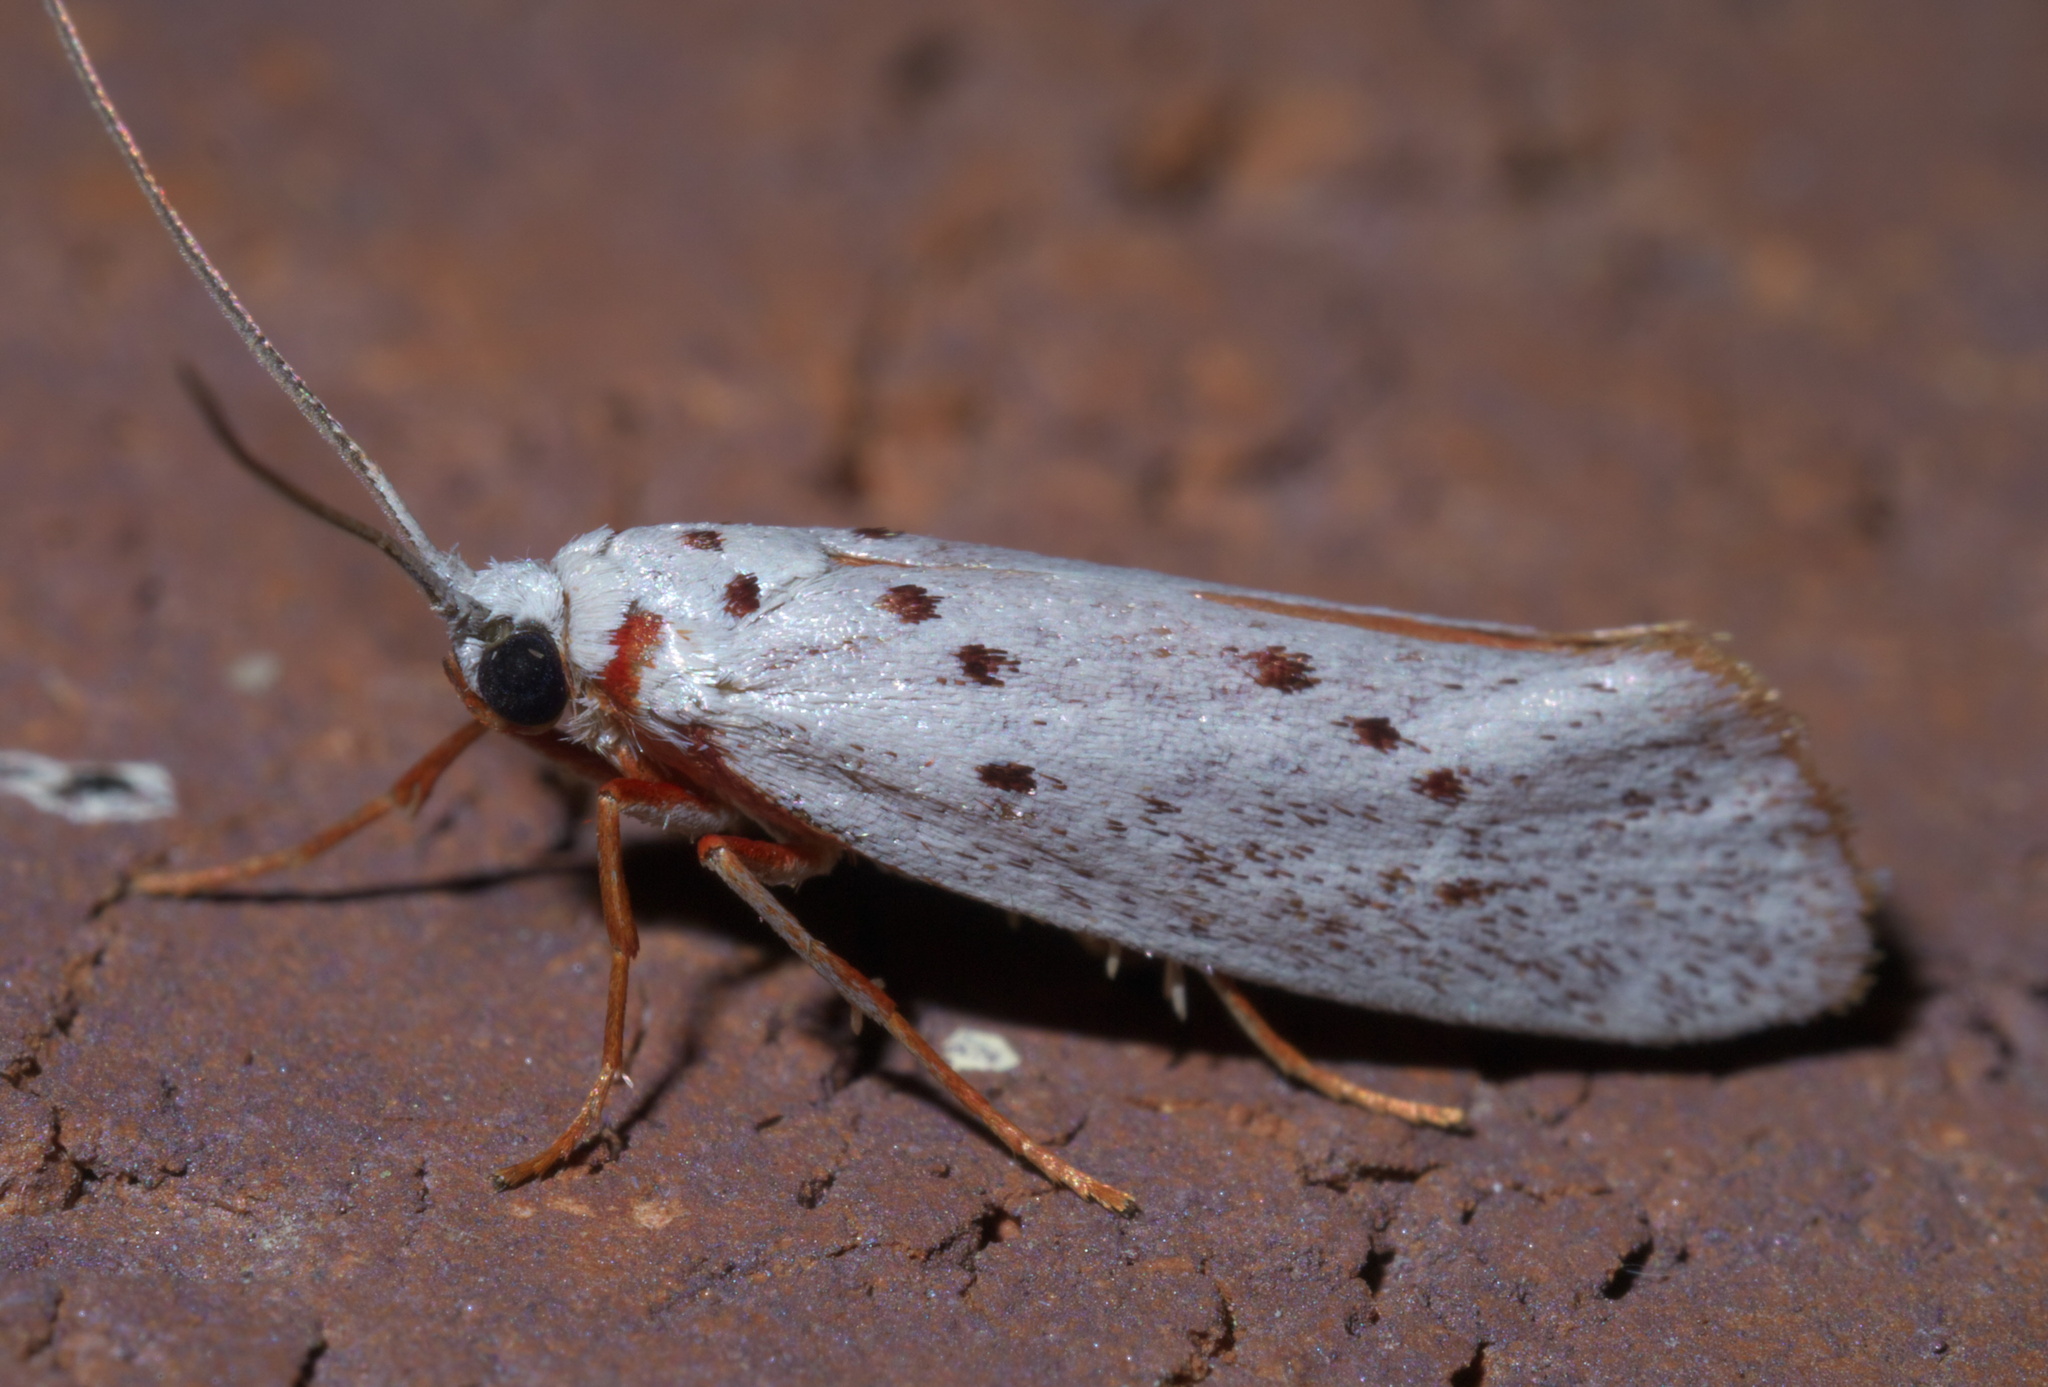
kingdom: Animalia
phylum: Arthropoda
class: Insecta
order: Lepidoptera
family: Lacturidae
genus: Lactura
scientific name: Lactura
